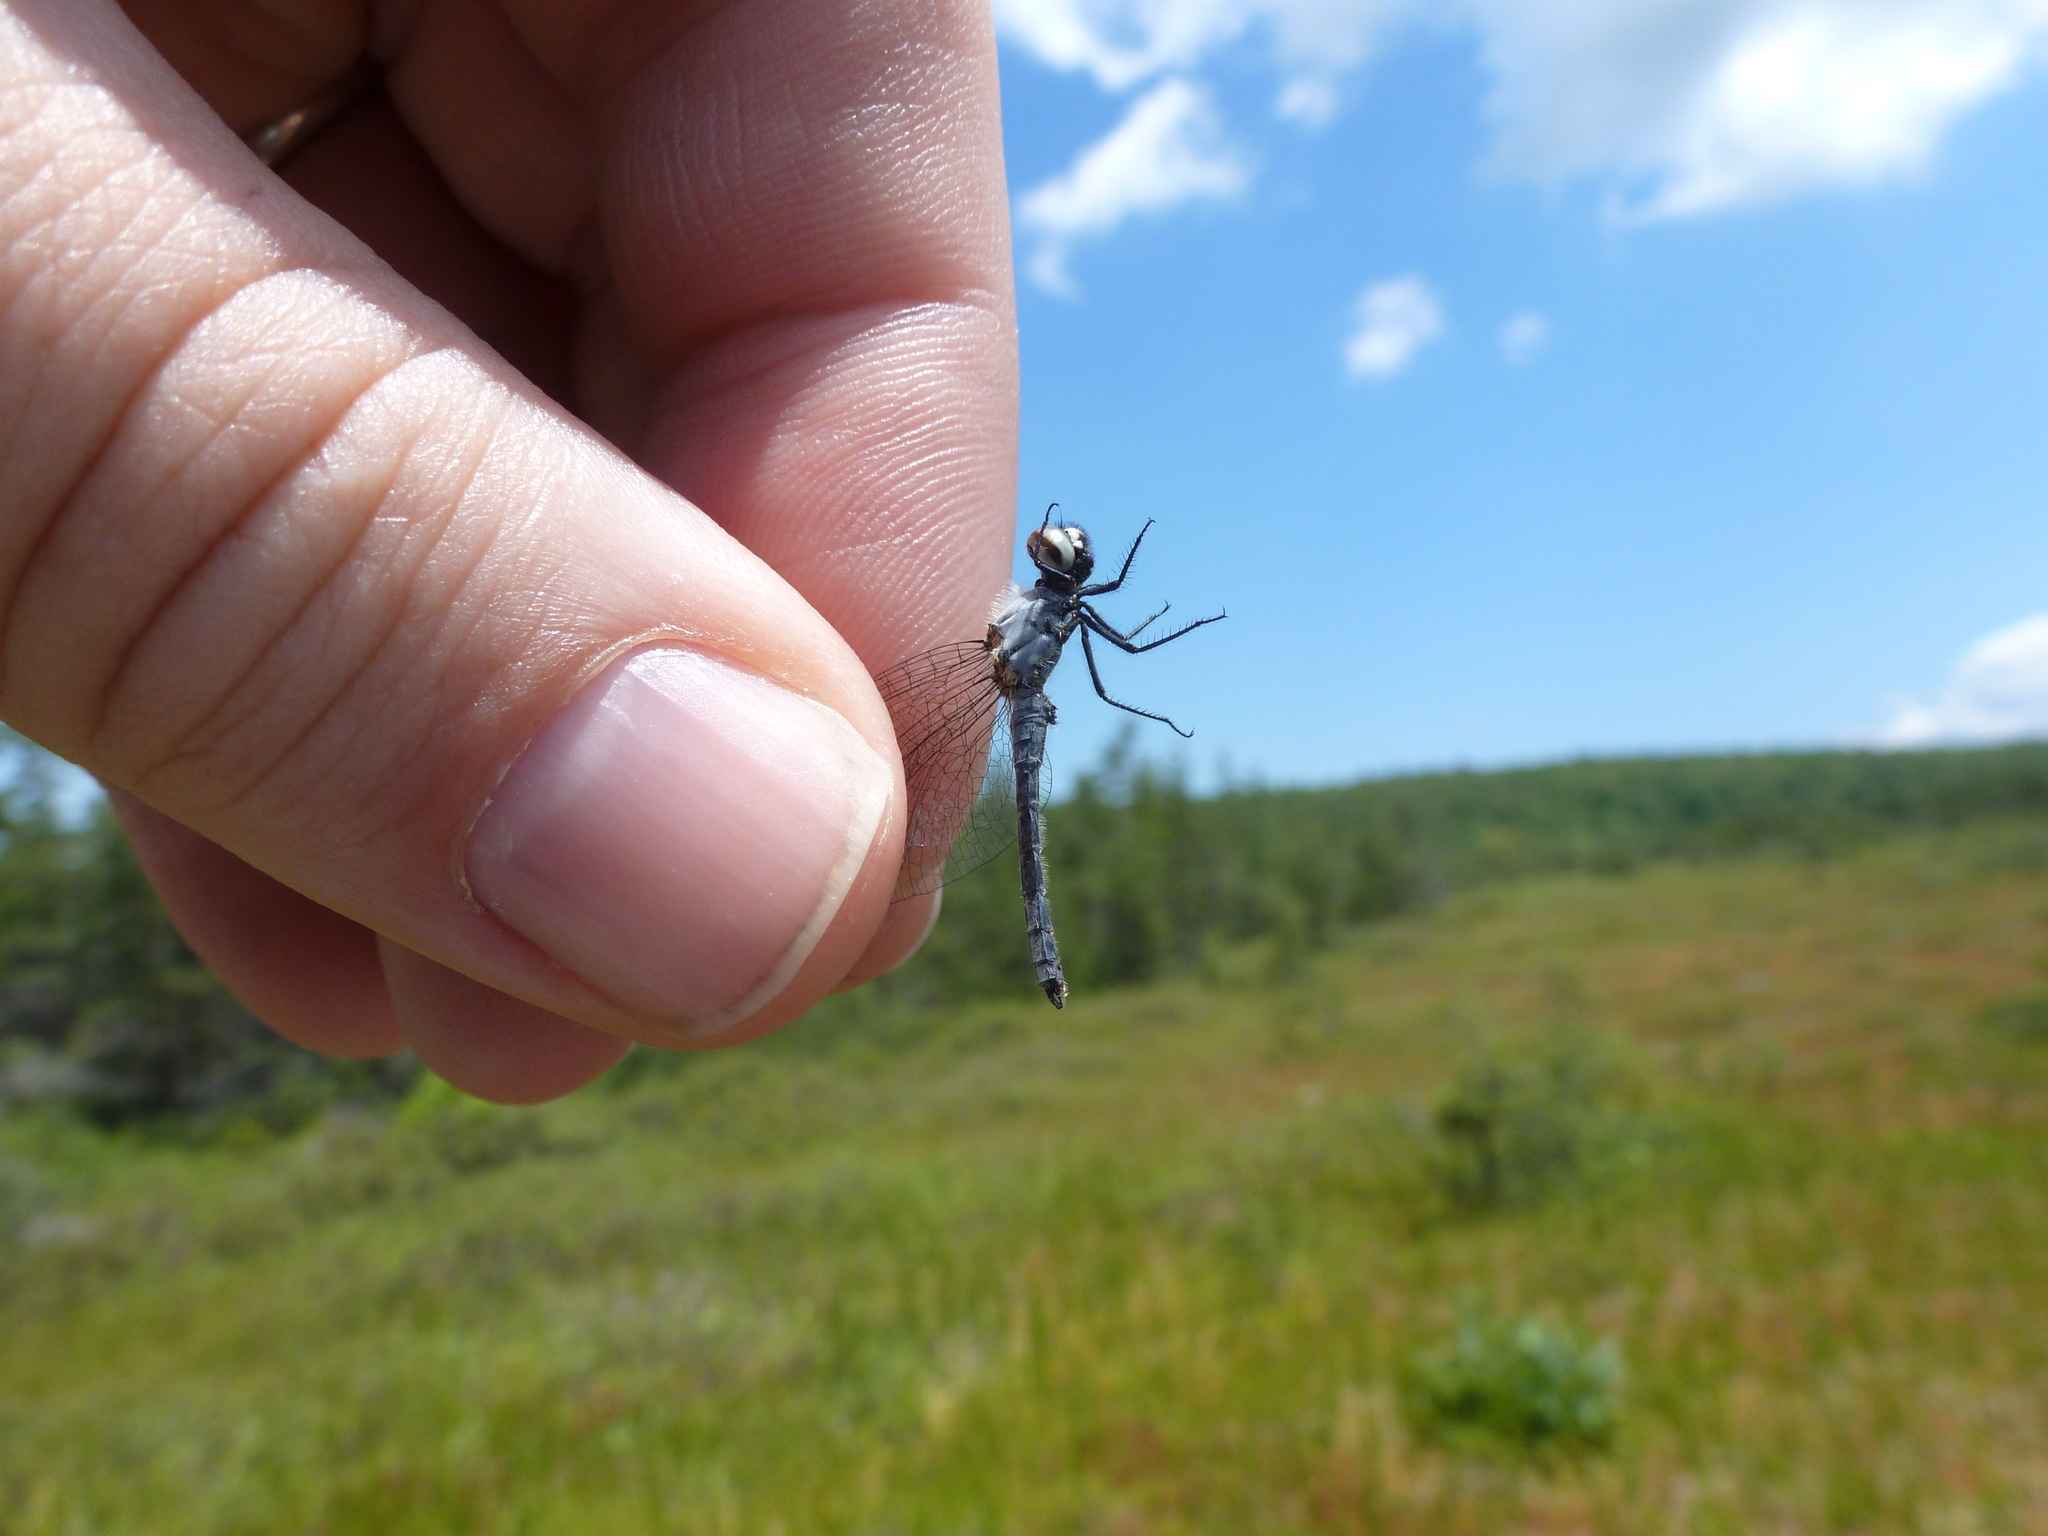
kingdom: Animalia
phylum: Arthropoda
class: Insecta
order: Odonata
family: Libellulidae
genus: Nannothemis
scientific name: Nannothemis bella
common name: Elfin skimmer
